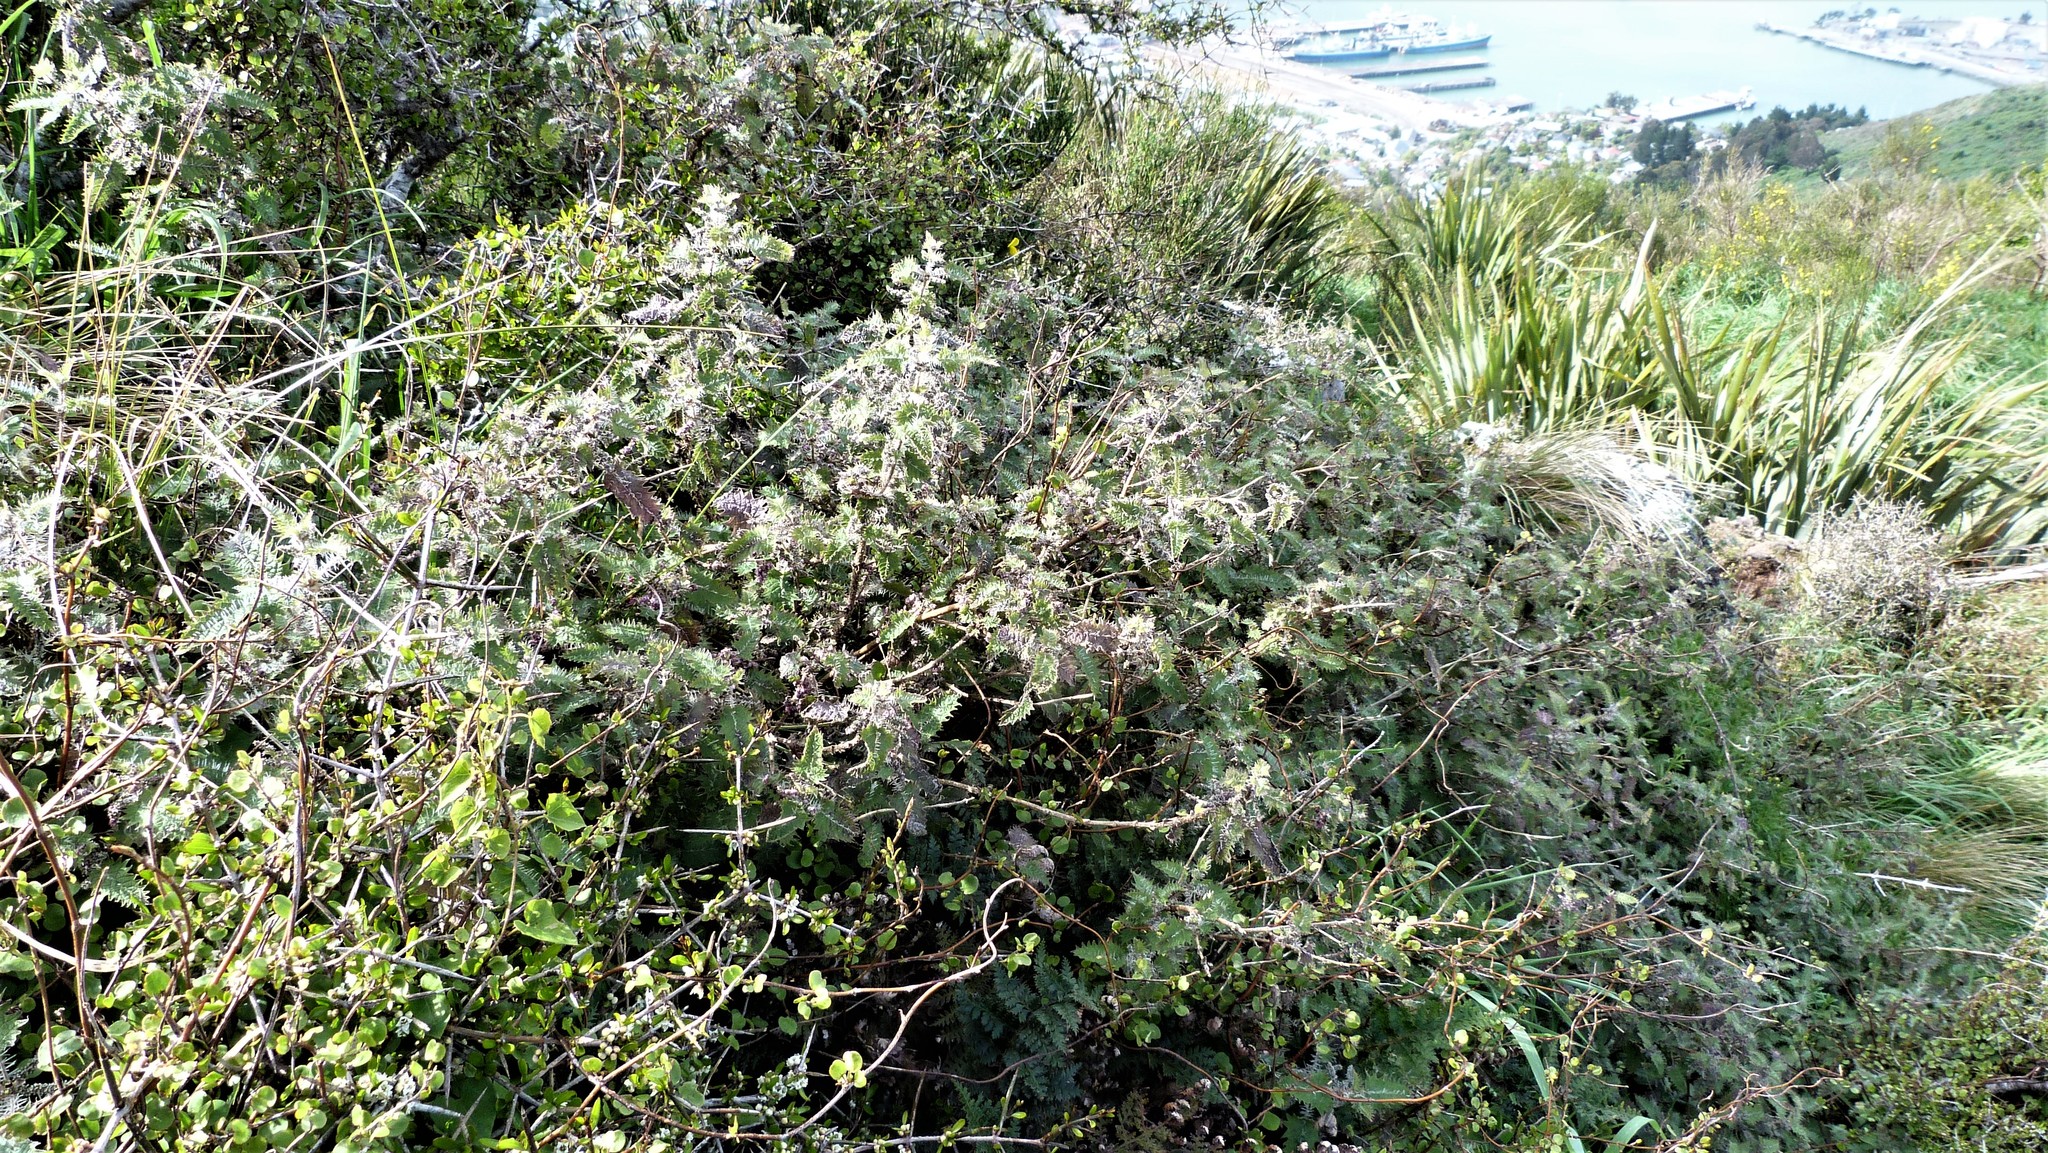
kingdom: Plantae
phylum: Tracheophyta
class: Magnoliopsida
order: Rosales
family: Urticaceae
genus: Urtica
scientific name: Urtica ferox
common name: Tree nettle
